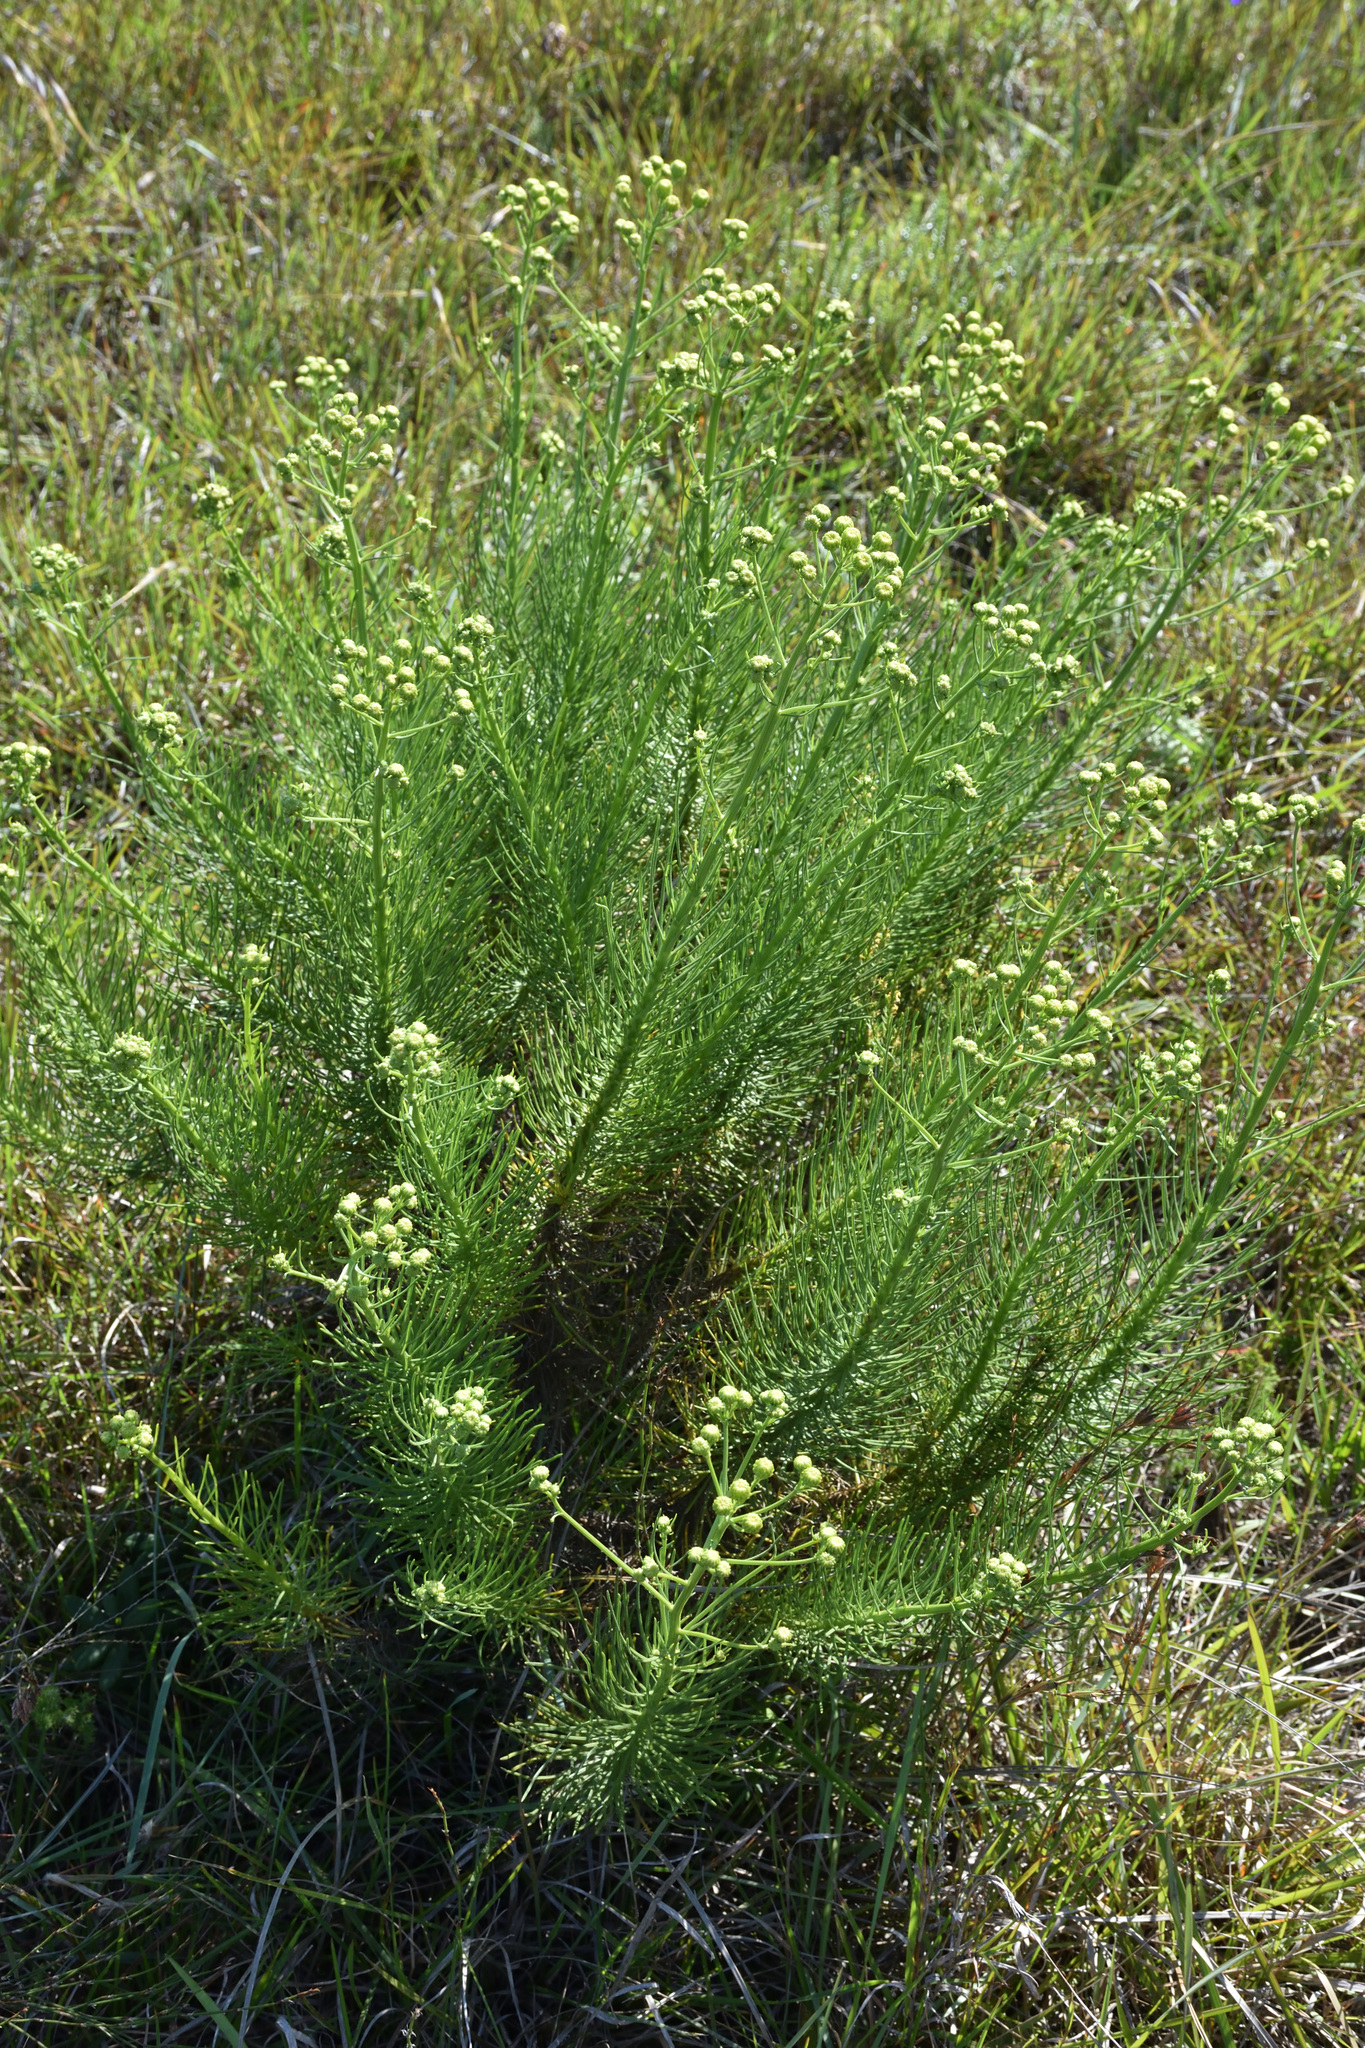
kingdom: Plantae
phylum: Tracheophyta
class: Magnoliopsida
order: Asterales
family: Asteraceae
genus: Senecio
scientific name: Senecio chrysocoma
